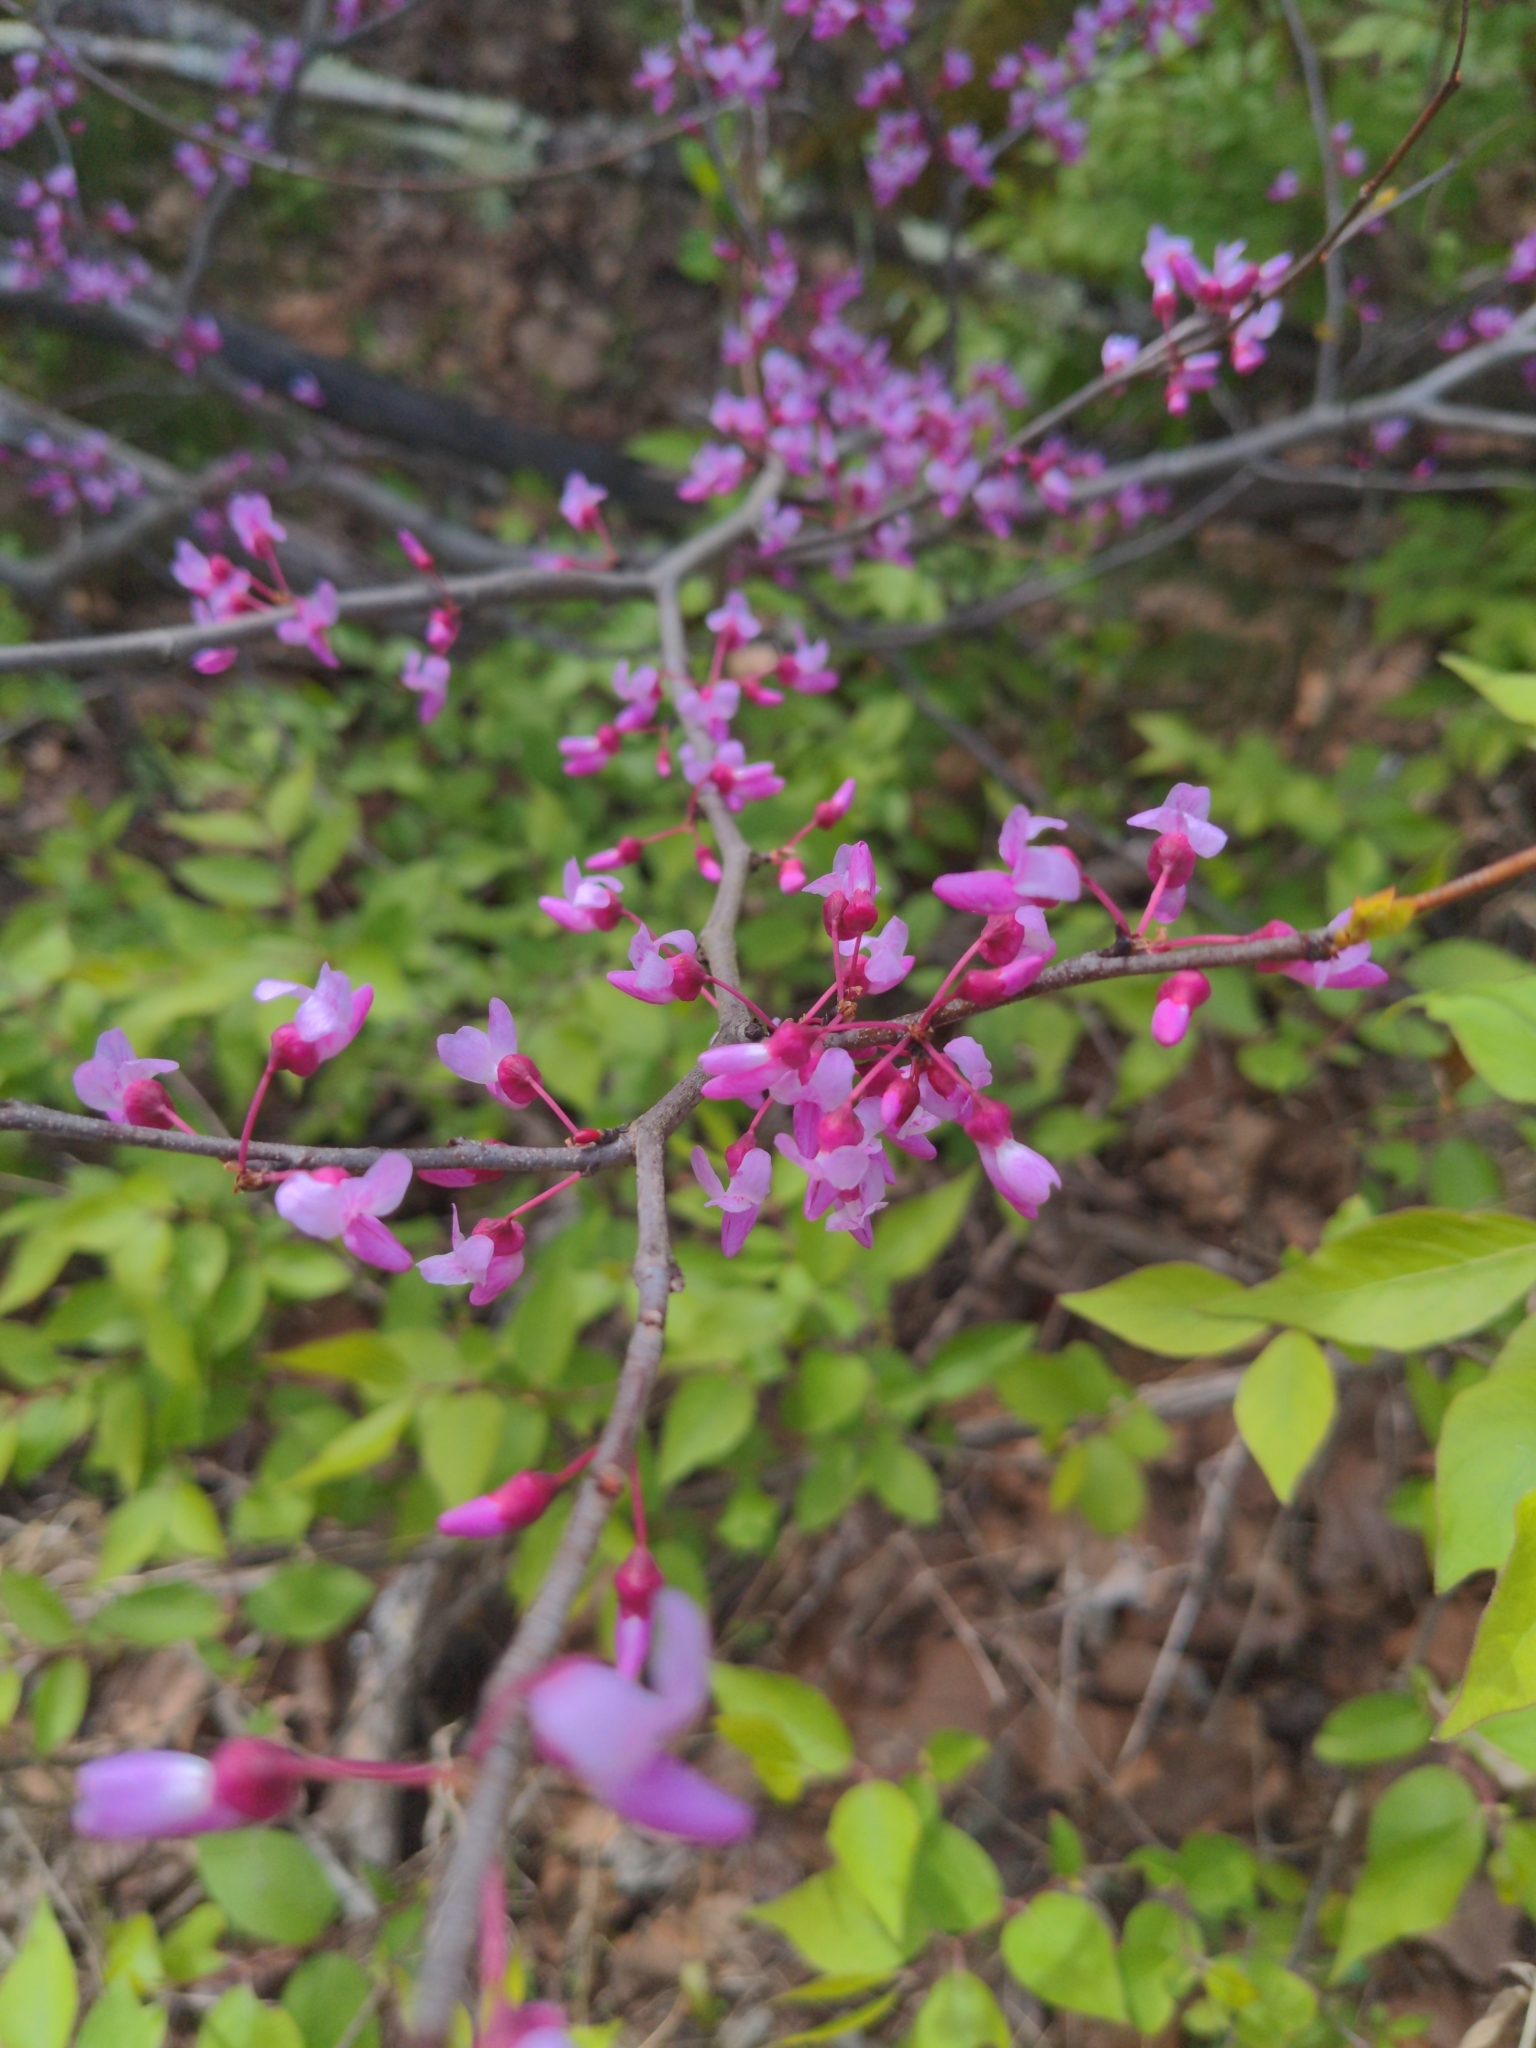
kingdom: Plantae
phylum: Tracheophyta
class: Magnoliopsida
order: Fabales
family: Fabaceae
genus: Cercis
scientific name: Cercis canadensis
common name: Eastern redbud
